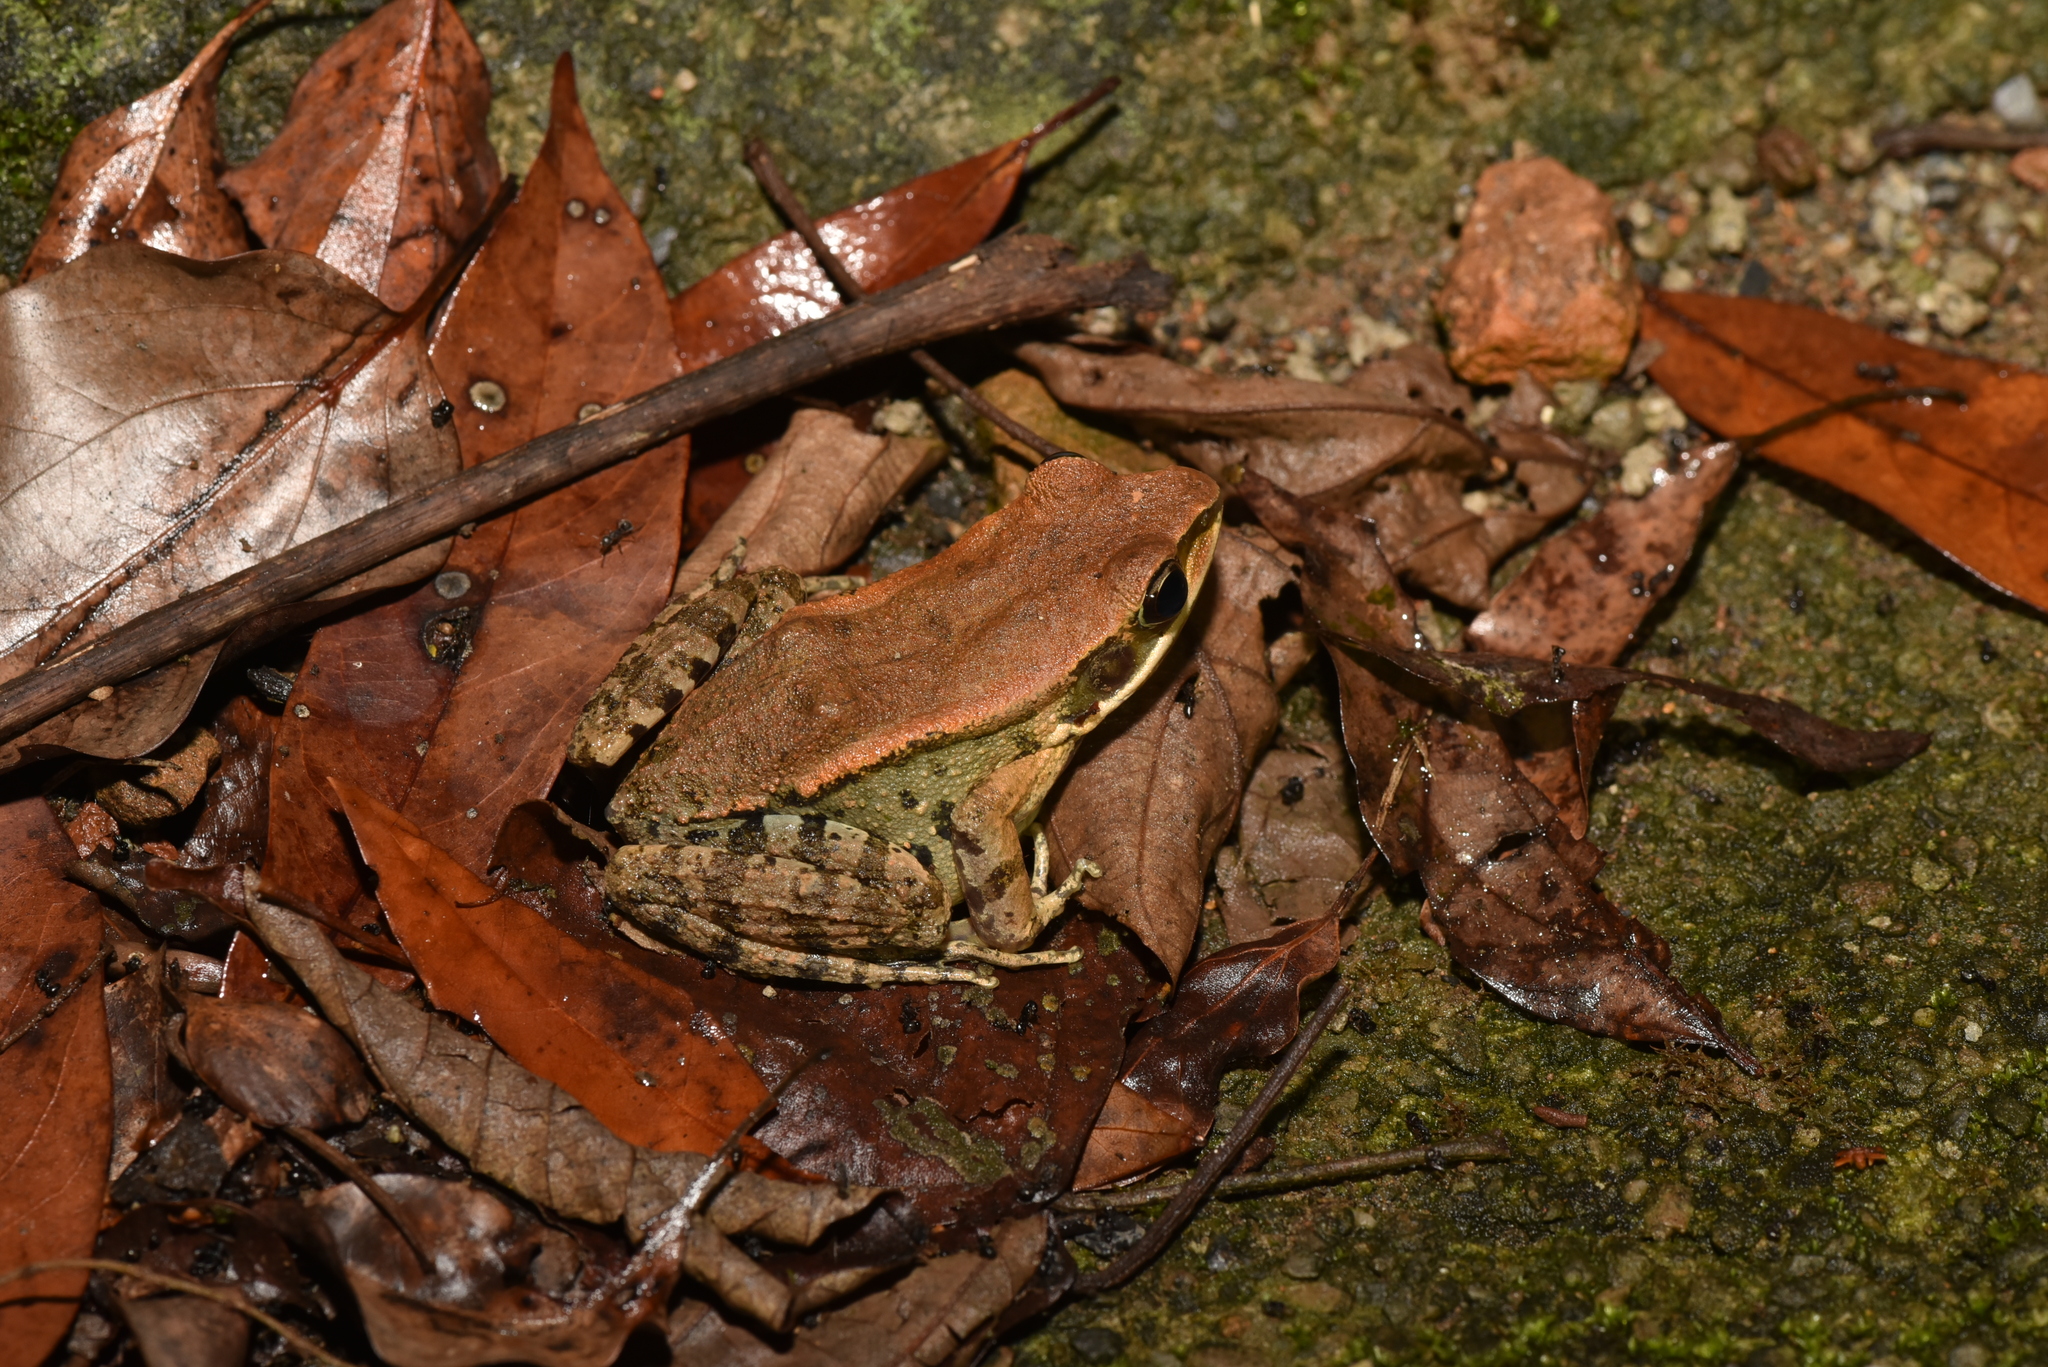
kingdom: Animalia
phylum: Chordata
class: Amphibia
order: Anura
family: Ranidae
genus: Hylarana
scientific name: Hylarana latouchii
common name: Broad-folded frog
